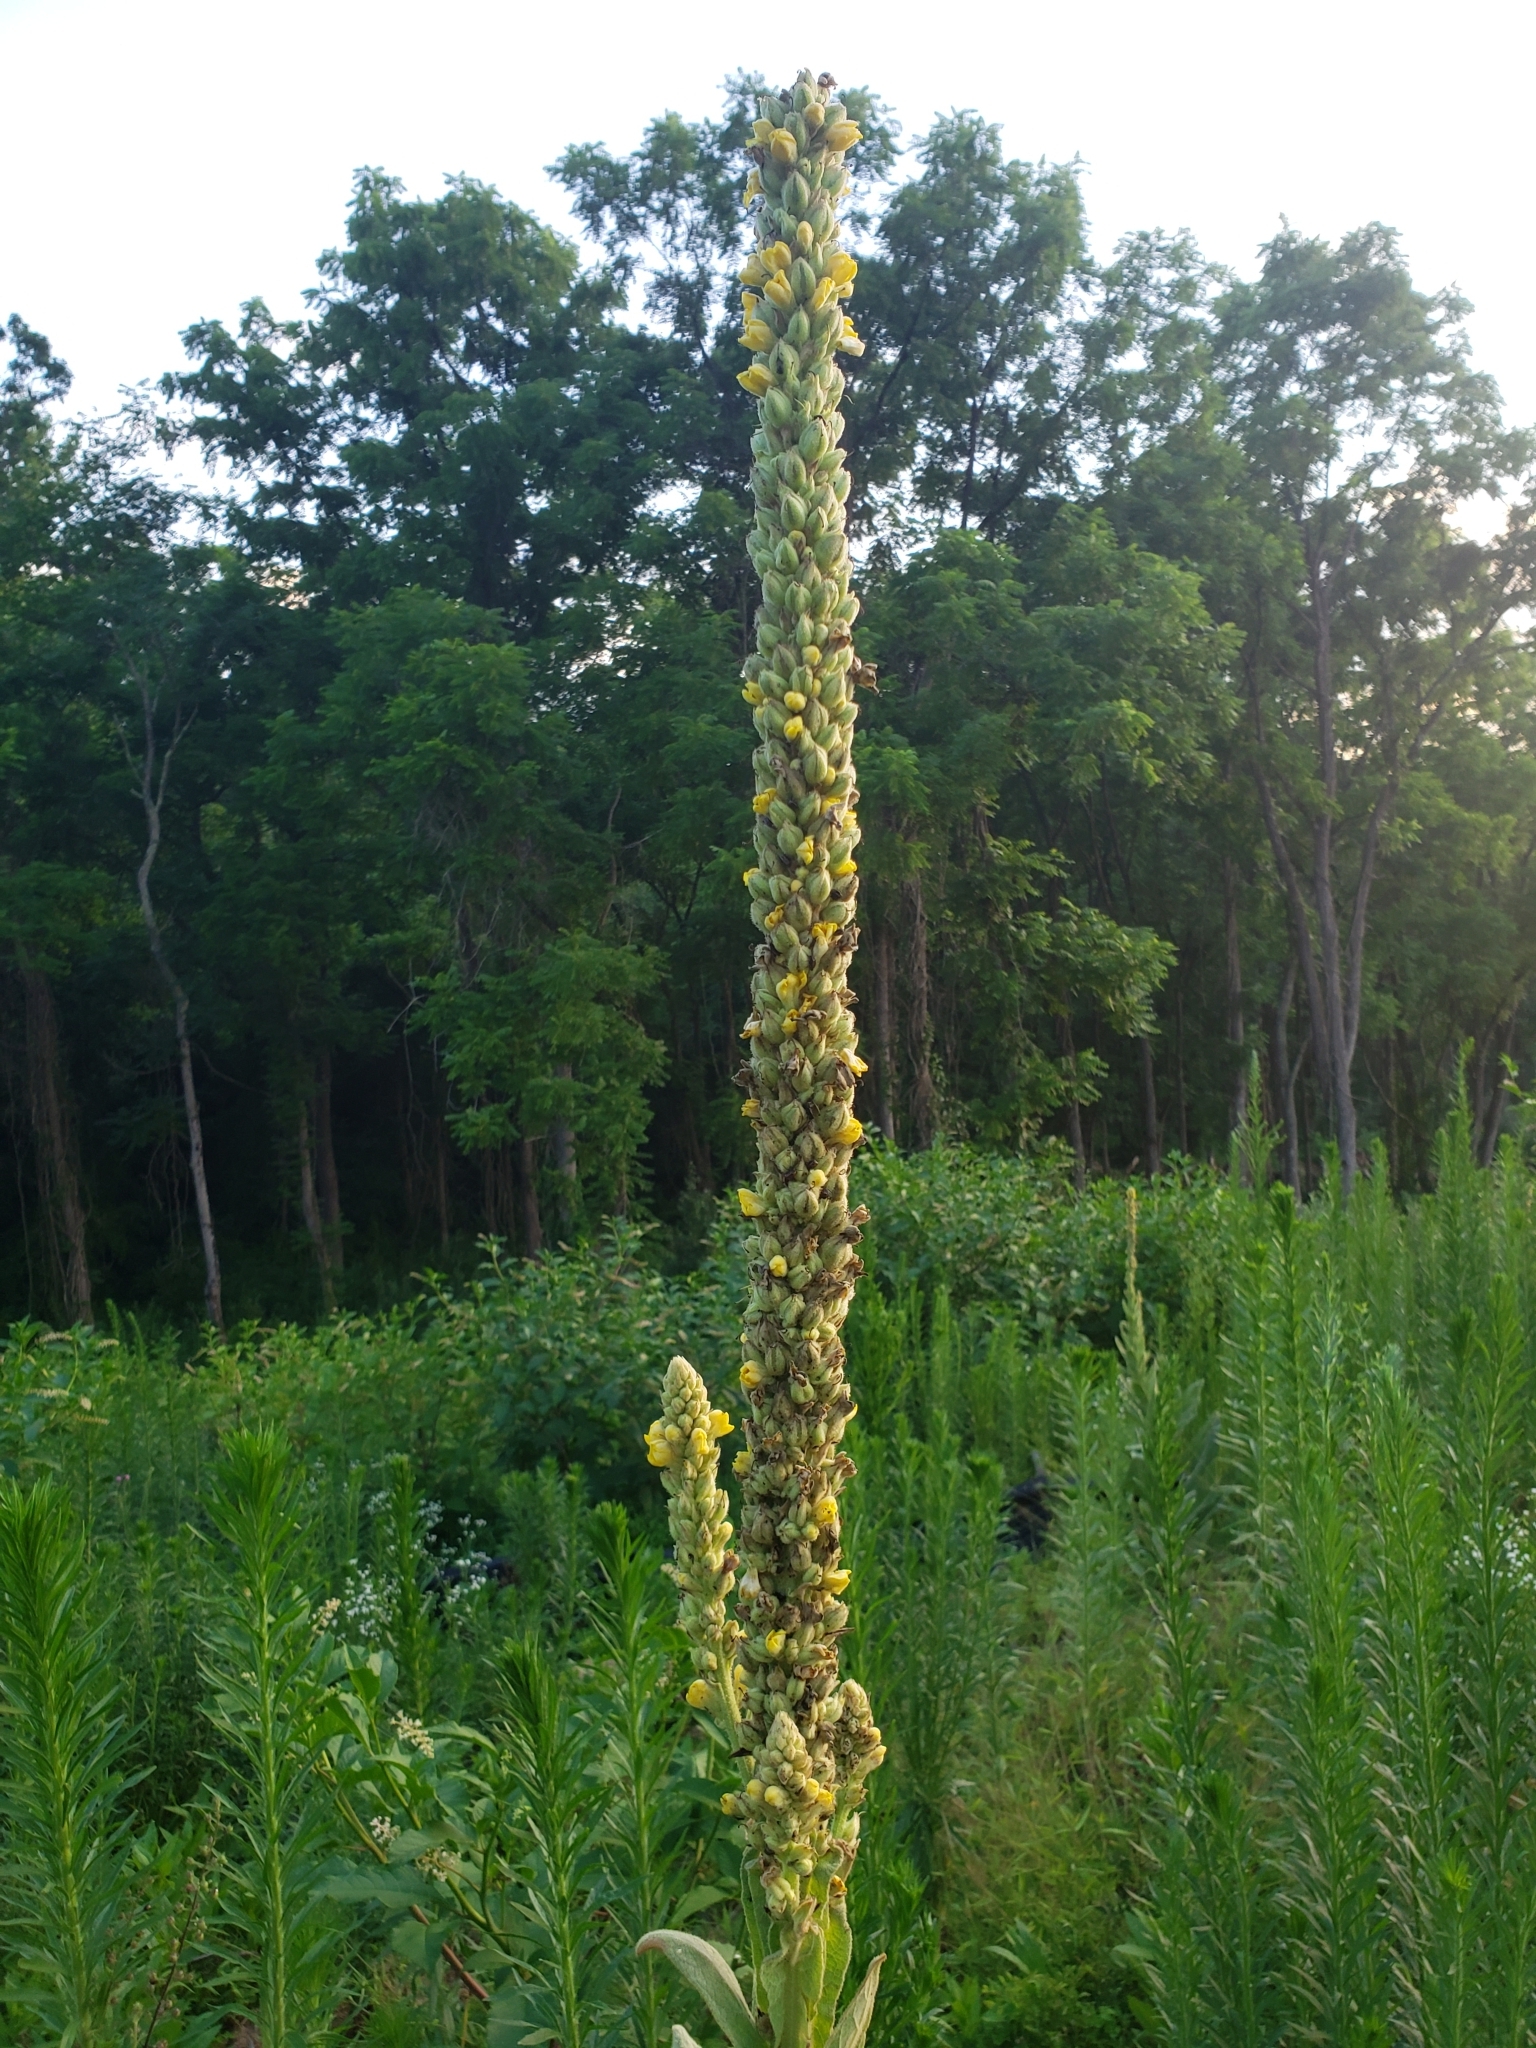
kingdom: Plantae
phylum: Tracheophyta
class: Magnoliopsida
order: Lamiales
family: Scrophulariaceae
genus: Verbascum
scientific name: Verbascum thapsus
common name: Common mullein
